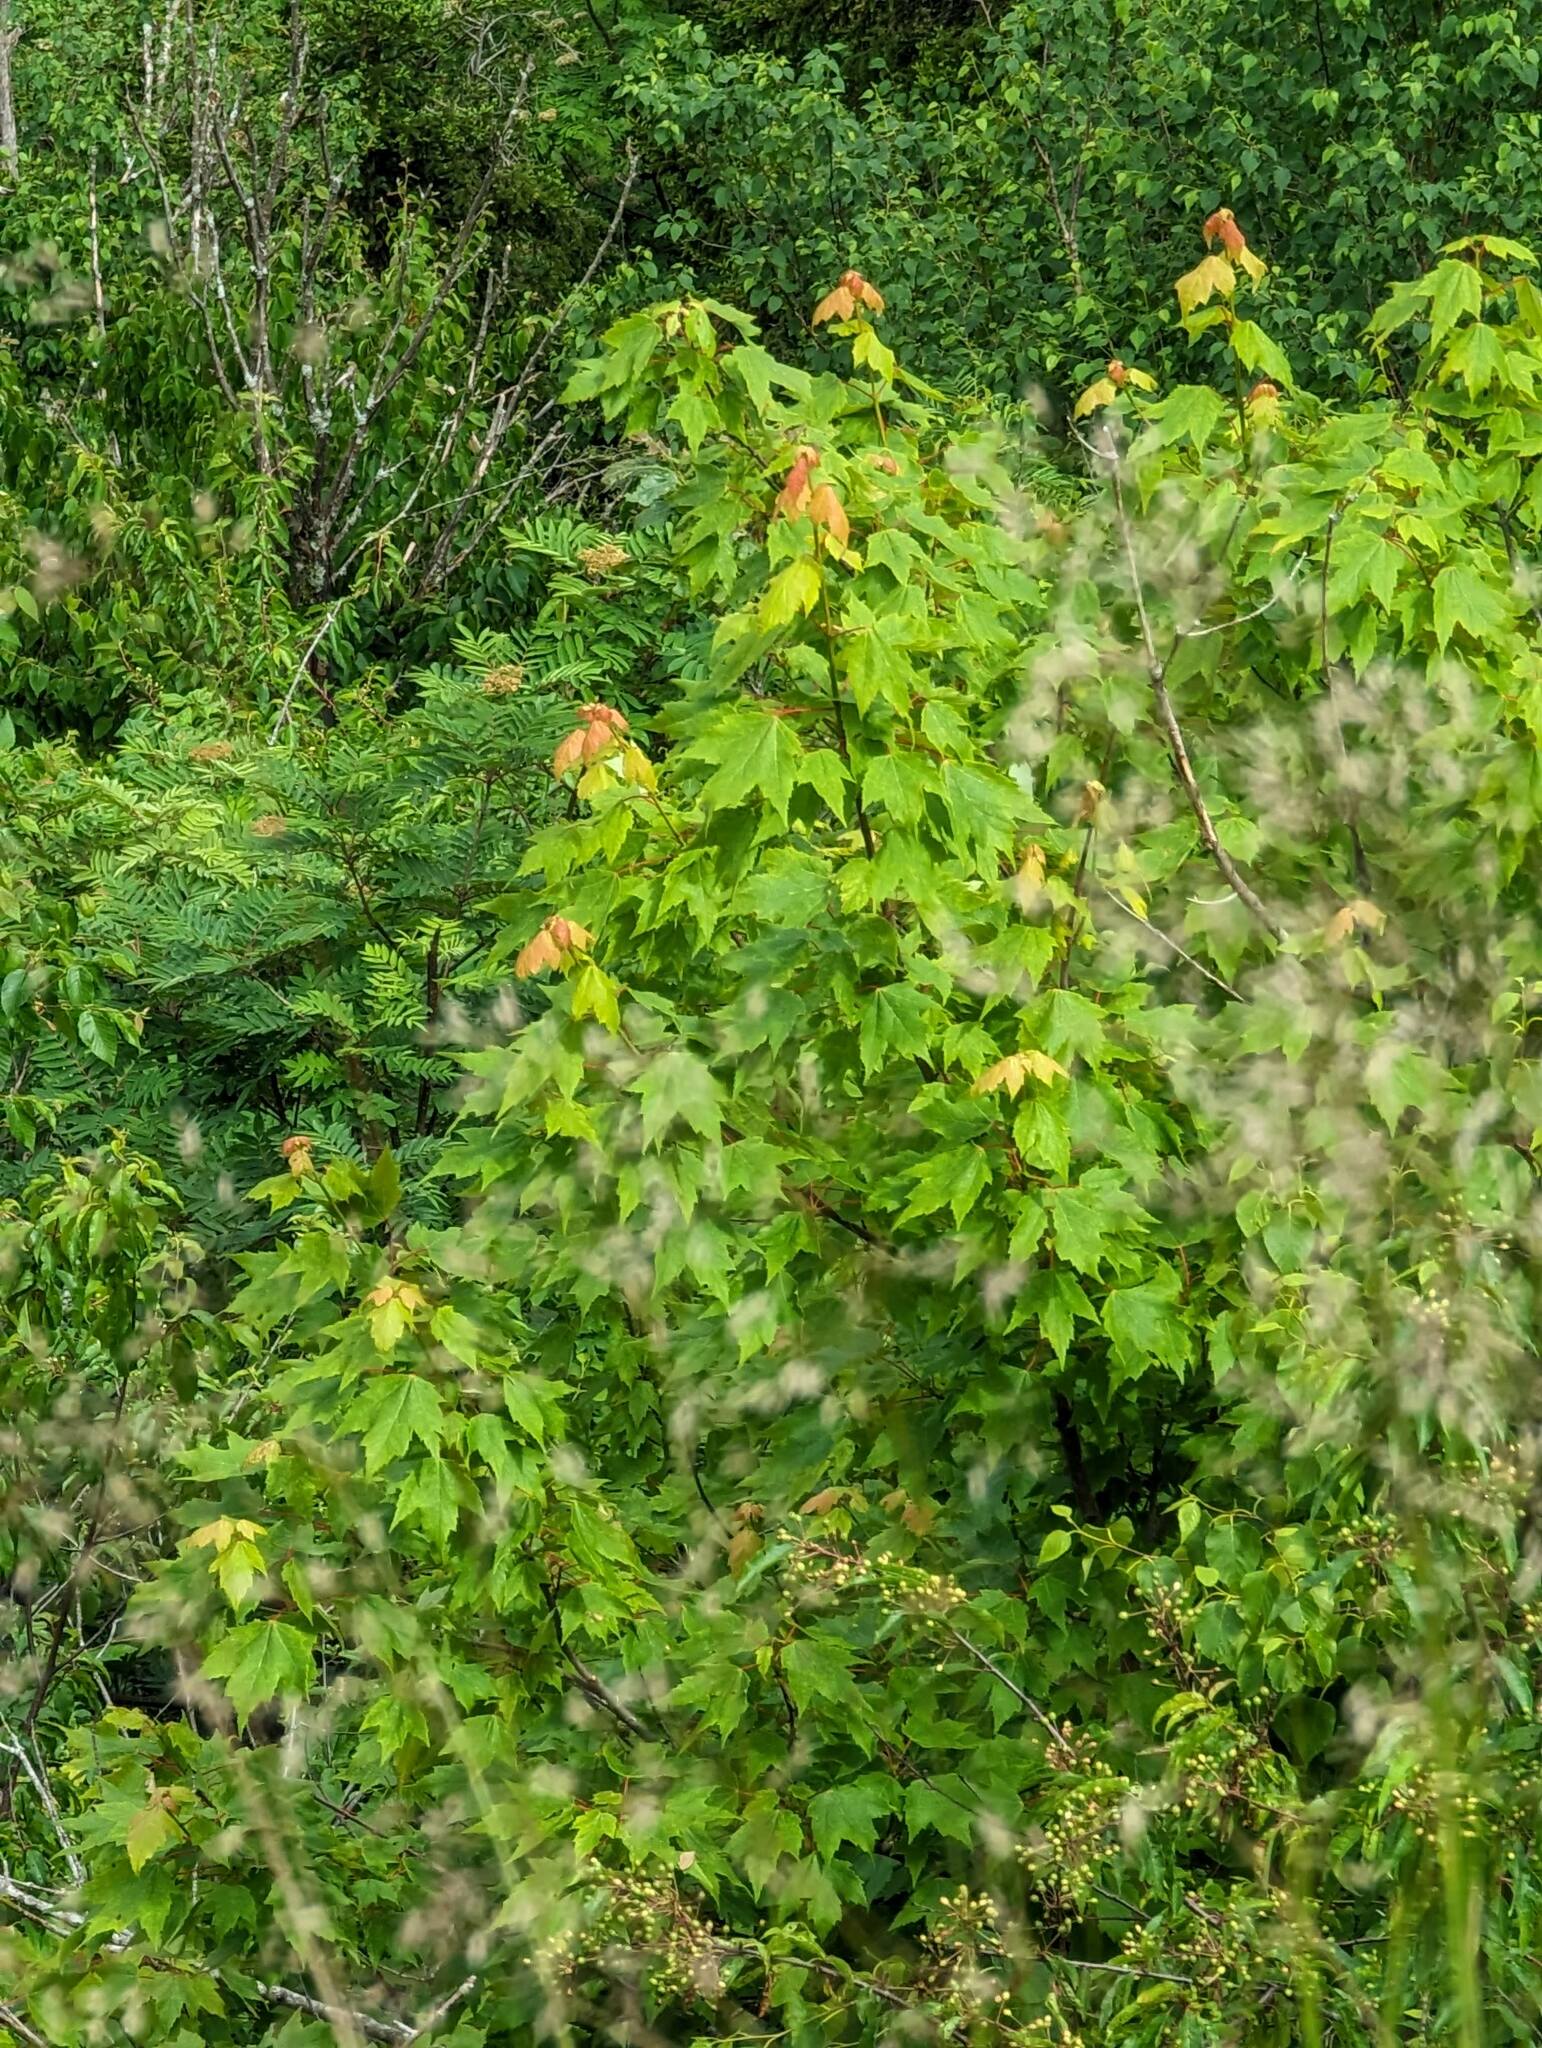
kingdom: Plantae
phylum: Tracheophyta
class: Magnoliopsida
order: Sapindales
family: Sapindaceae
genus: Acer
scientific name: Acer rubrum
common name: Red maple
